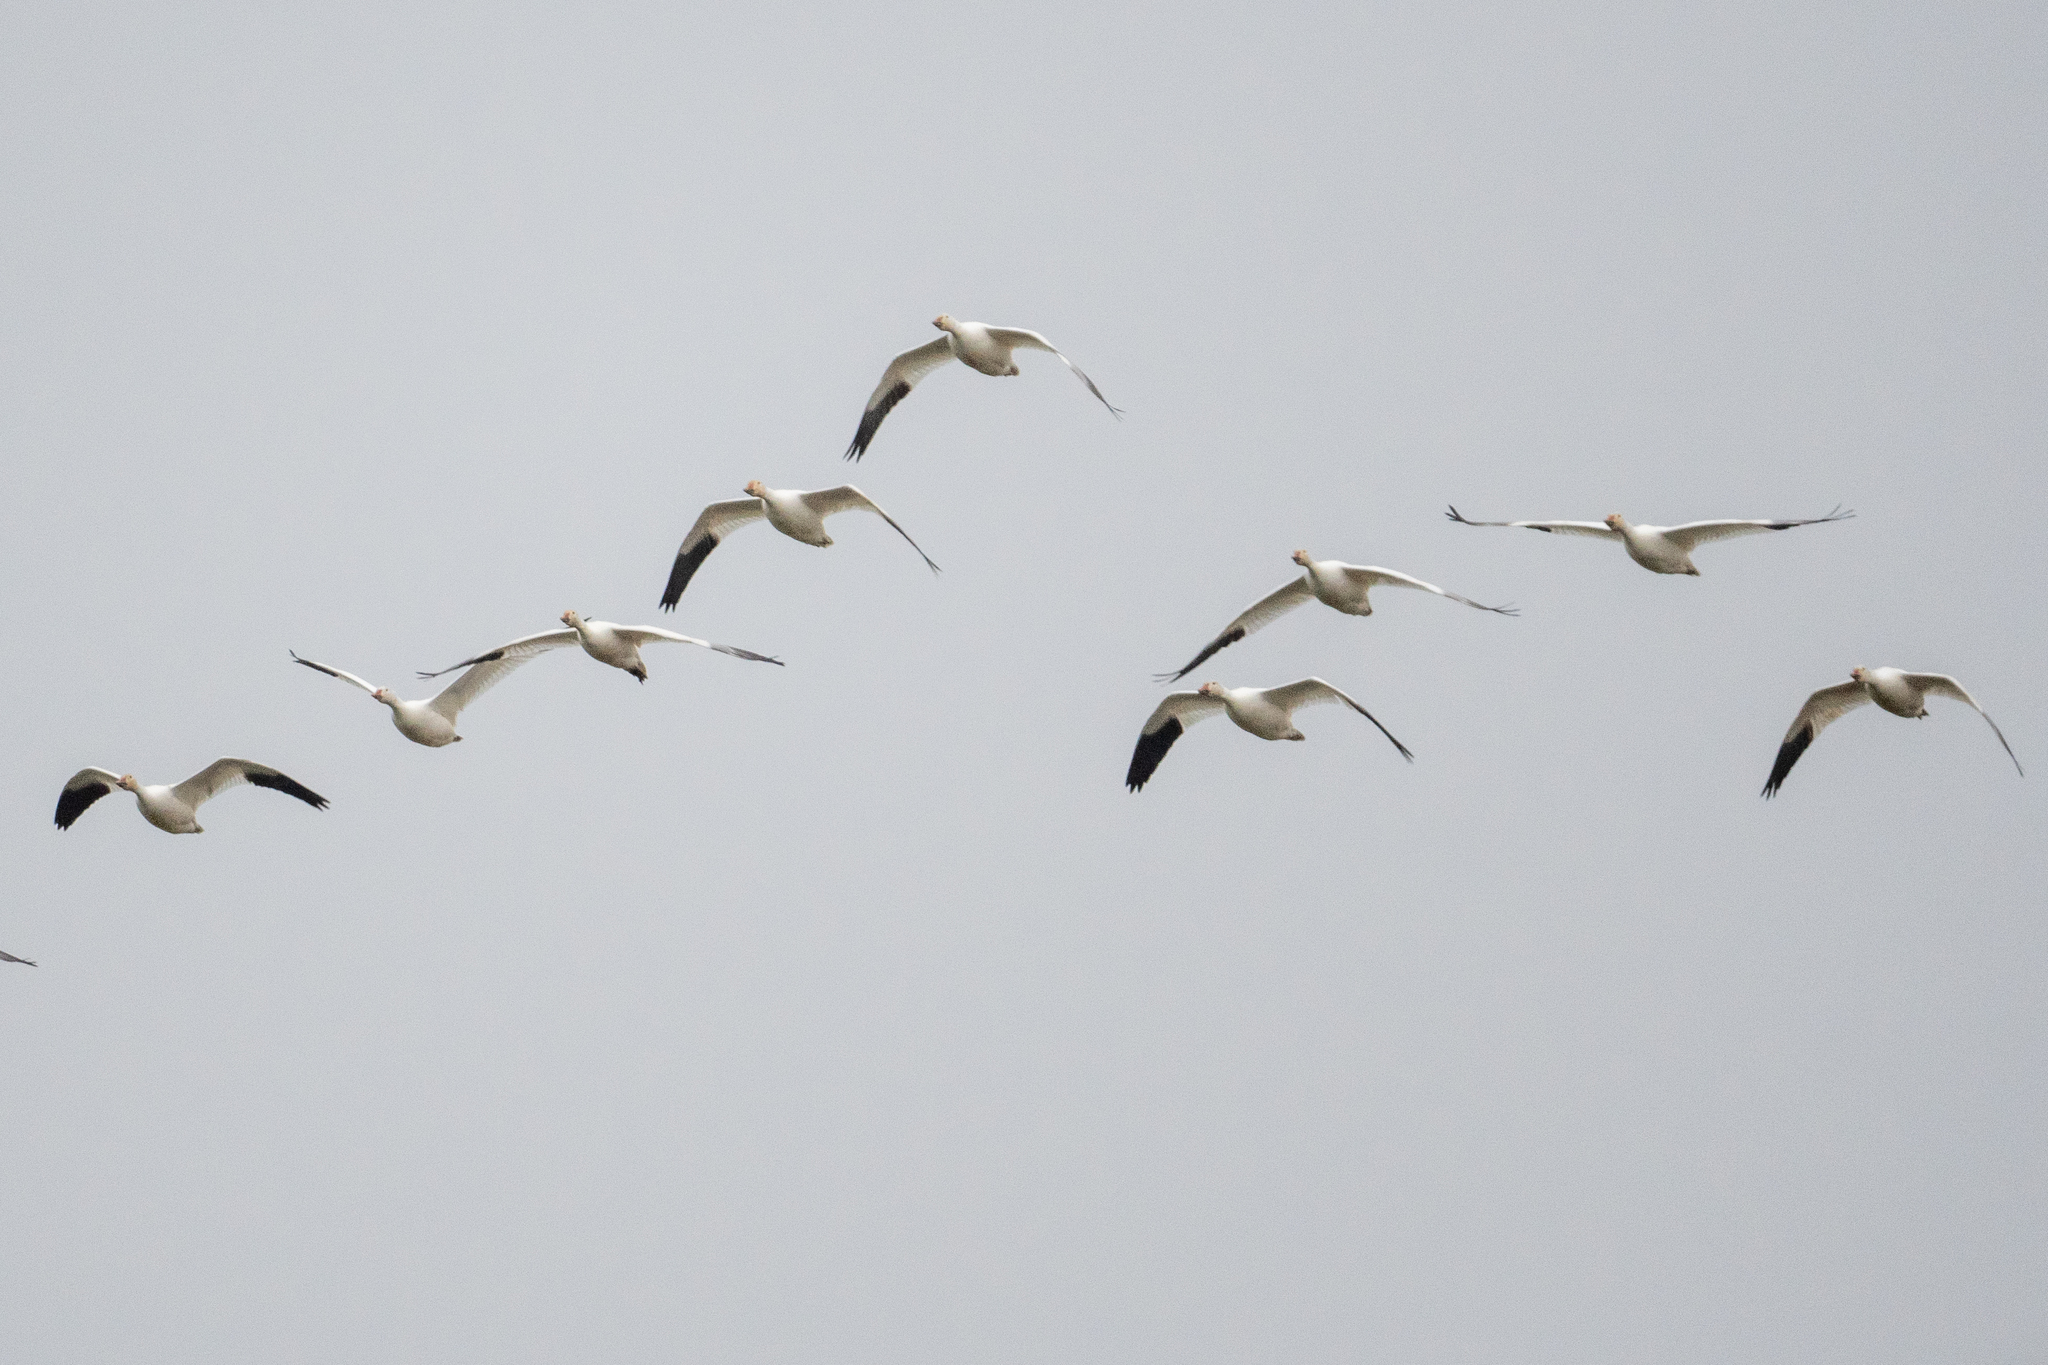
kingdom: Animalia
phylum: Chordata
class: Aves
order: Anseriformes
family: Anatidae
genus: Anser
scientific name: Anser caerulescens
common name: Snow goose
